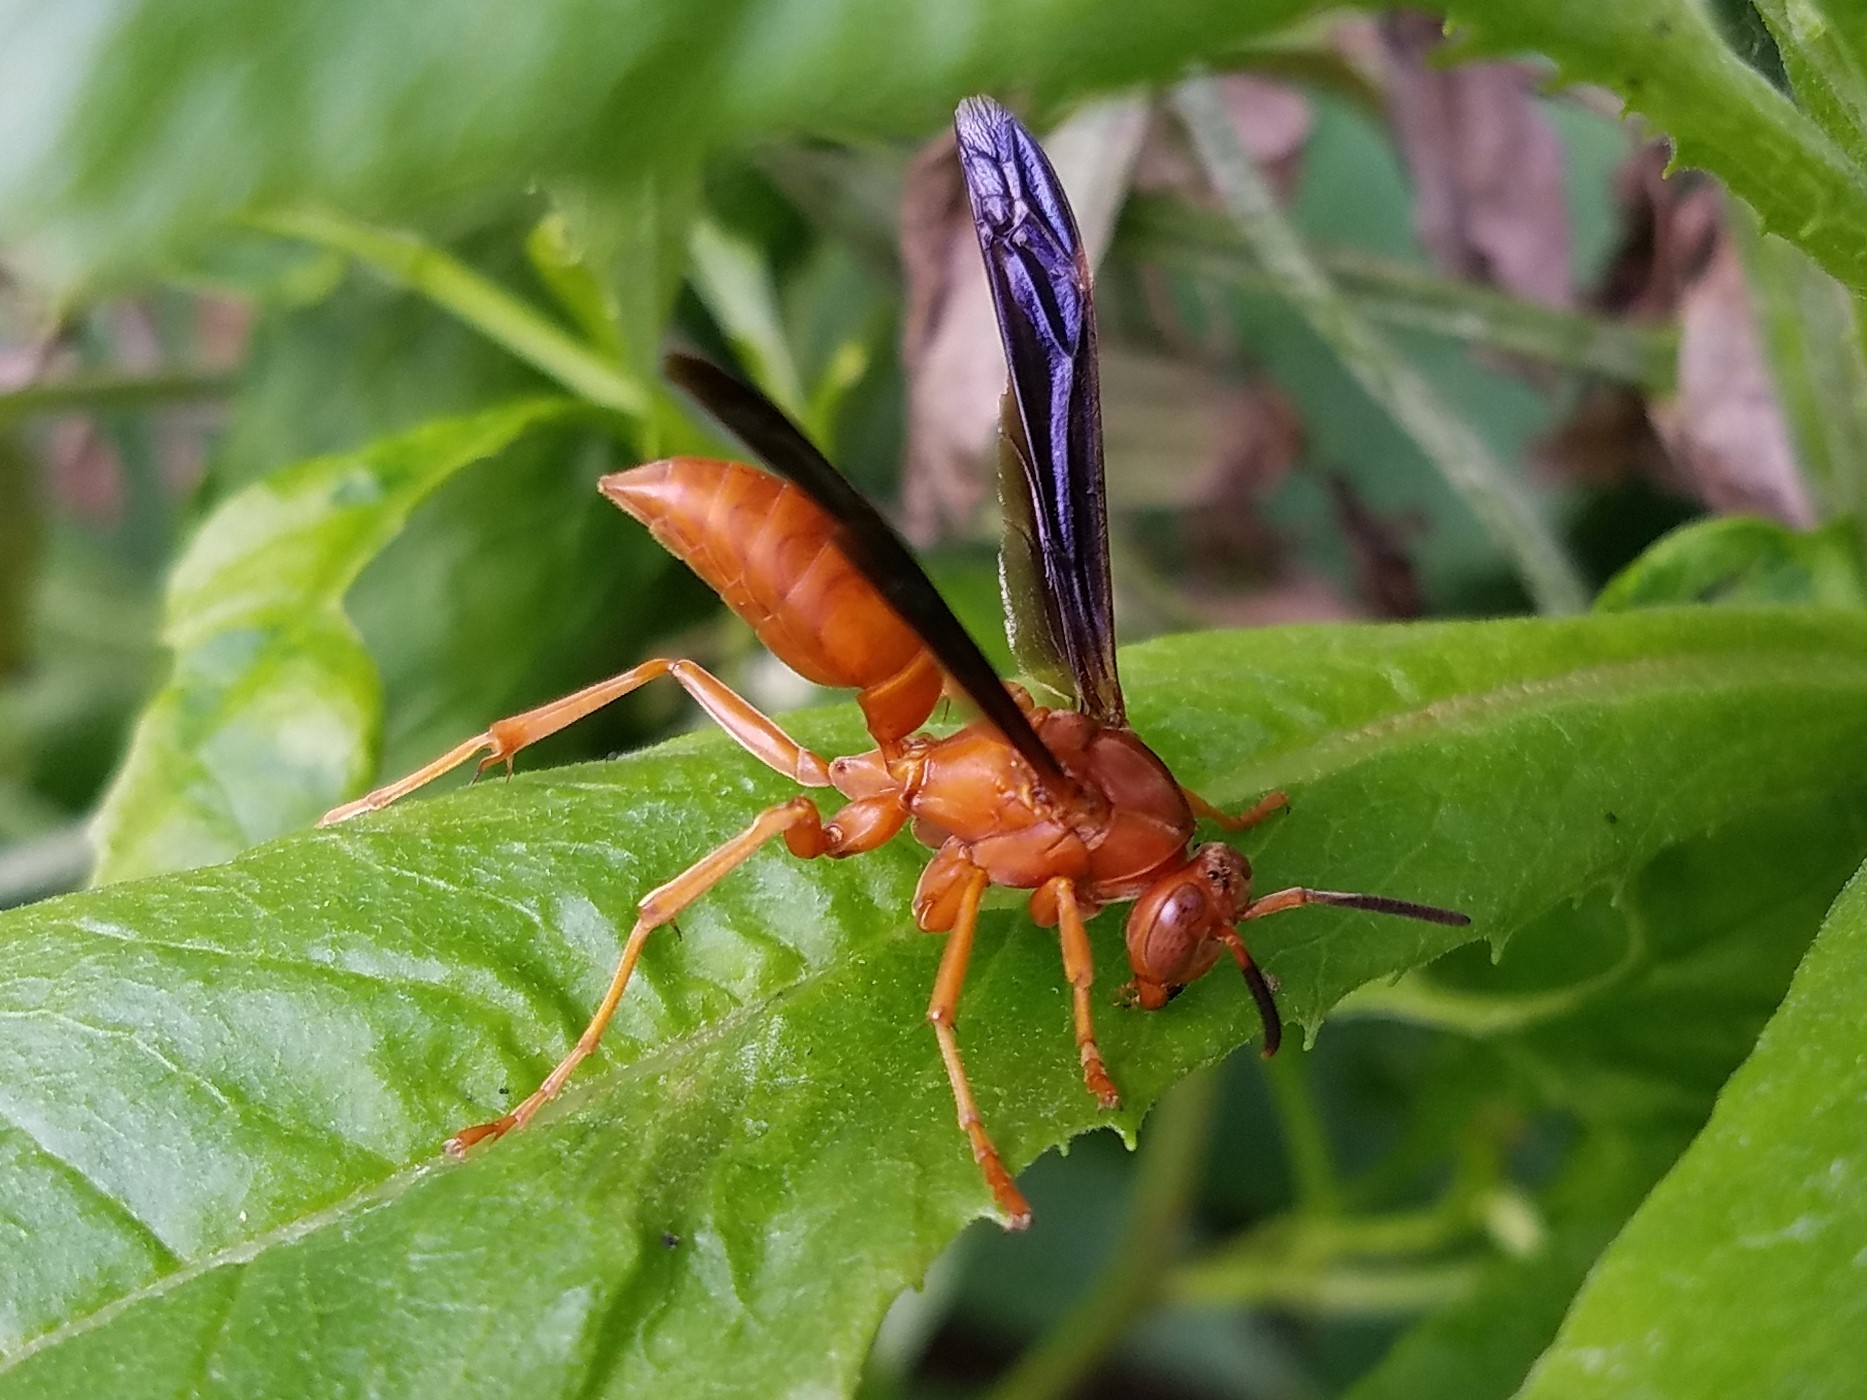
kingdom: Animalia
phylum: Arthropoda
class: Insecta
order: Hymenoptera
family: Vespidae
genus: Fuscopolistes
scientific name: Fuscopolistes
